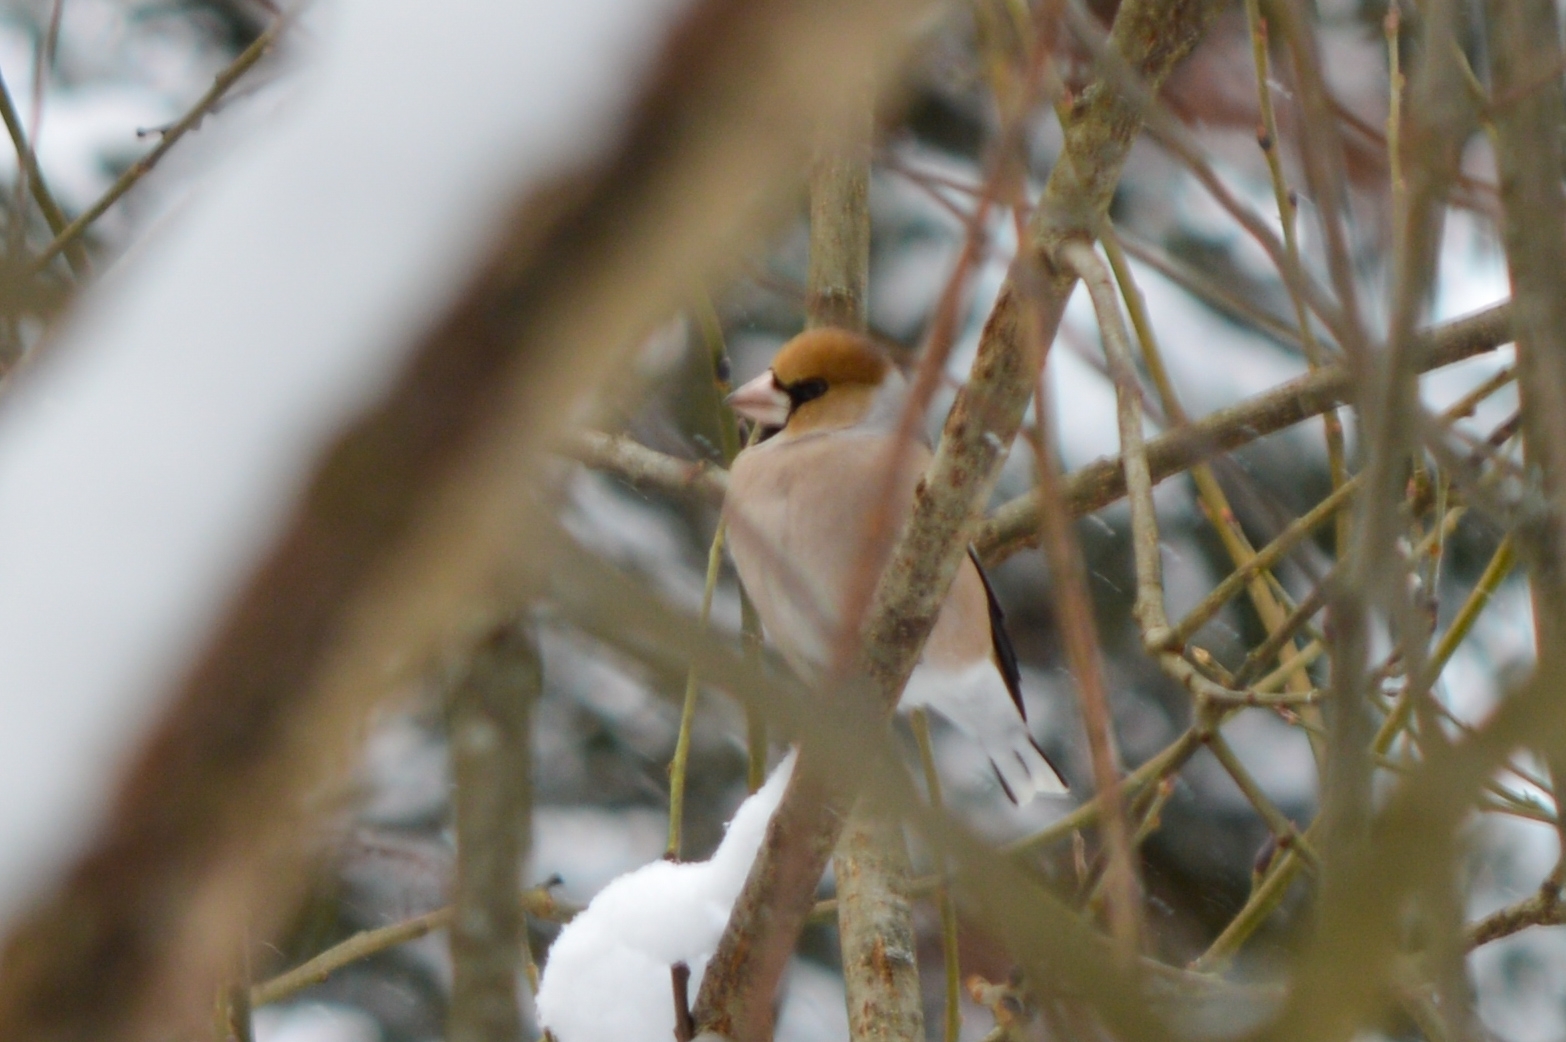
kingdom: Animalia
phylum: Chordata
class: Aves
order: Passeriformes
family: Fringillidae
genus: Coccothraustes
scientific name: Coccothraustes coccothraustes
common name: Hawfinch
